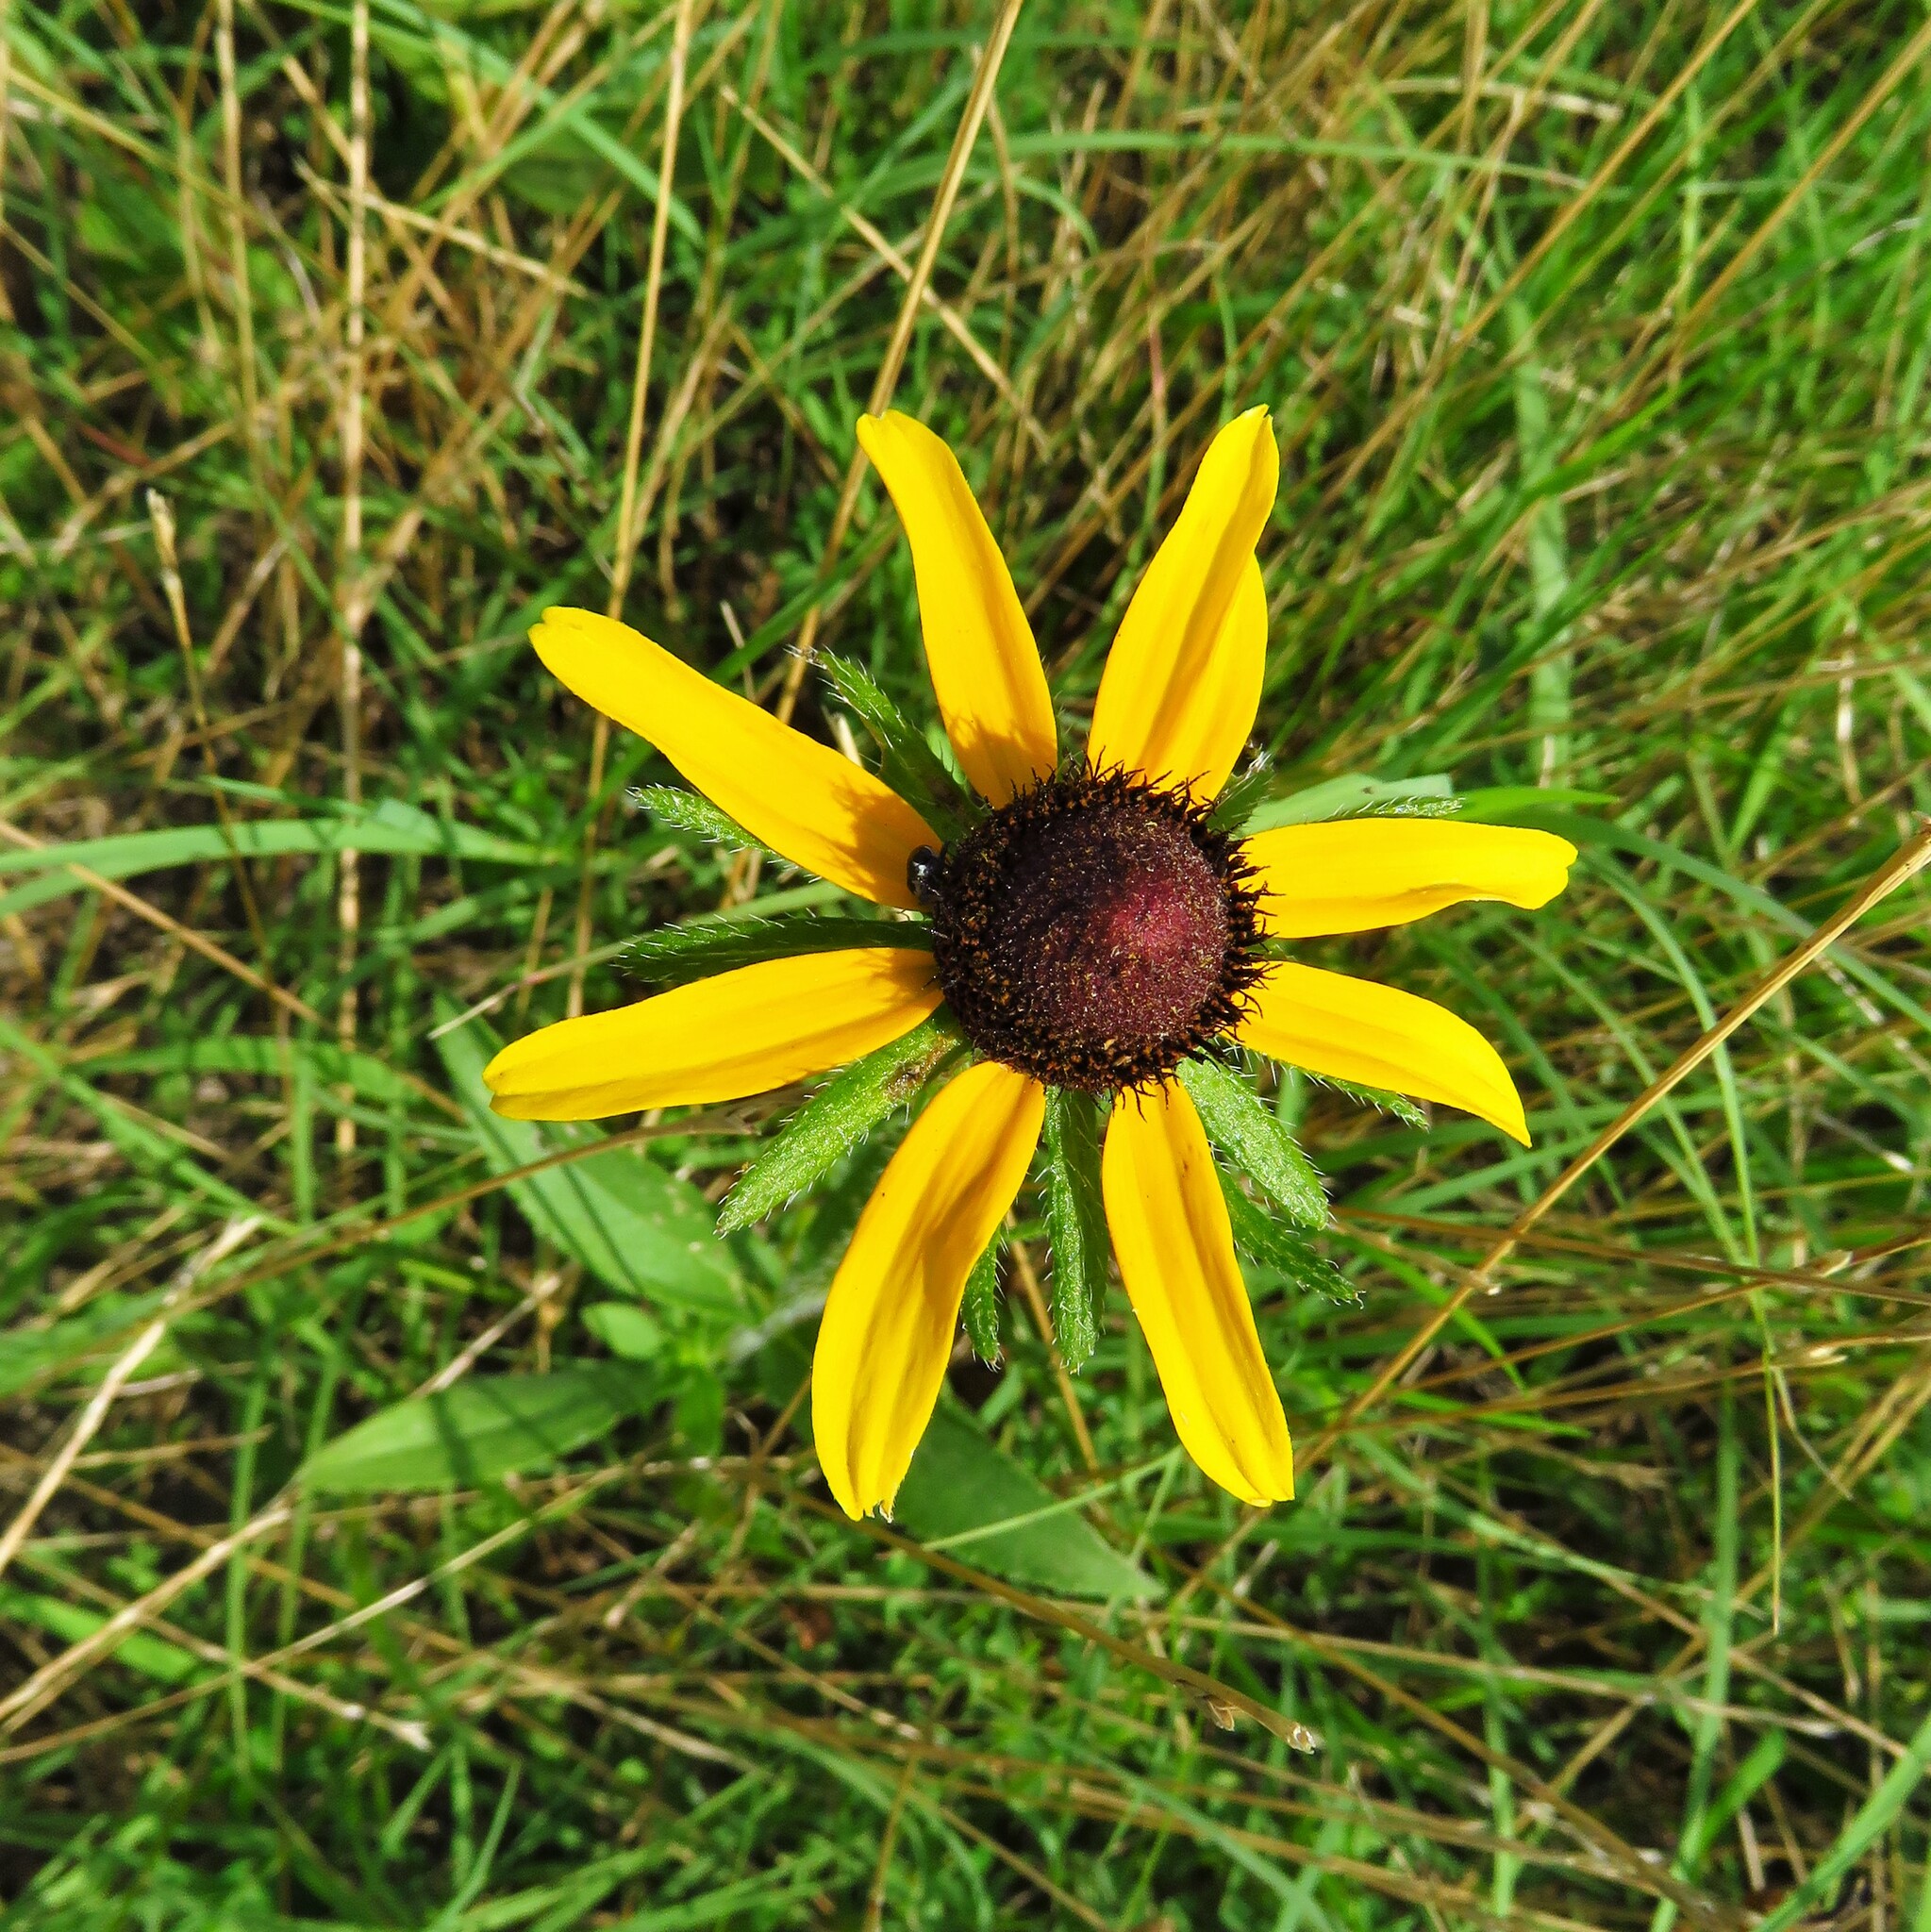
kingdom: Plantae
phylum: Tracheophyta
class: Magnoliopsida
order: Asterales
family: Asteraceae
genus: Rudbeckia
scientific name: Rudbeckia hirta
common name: Black-eyed-susan
